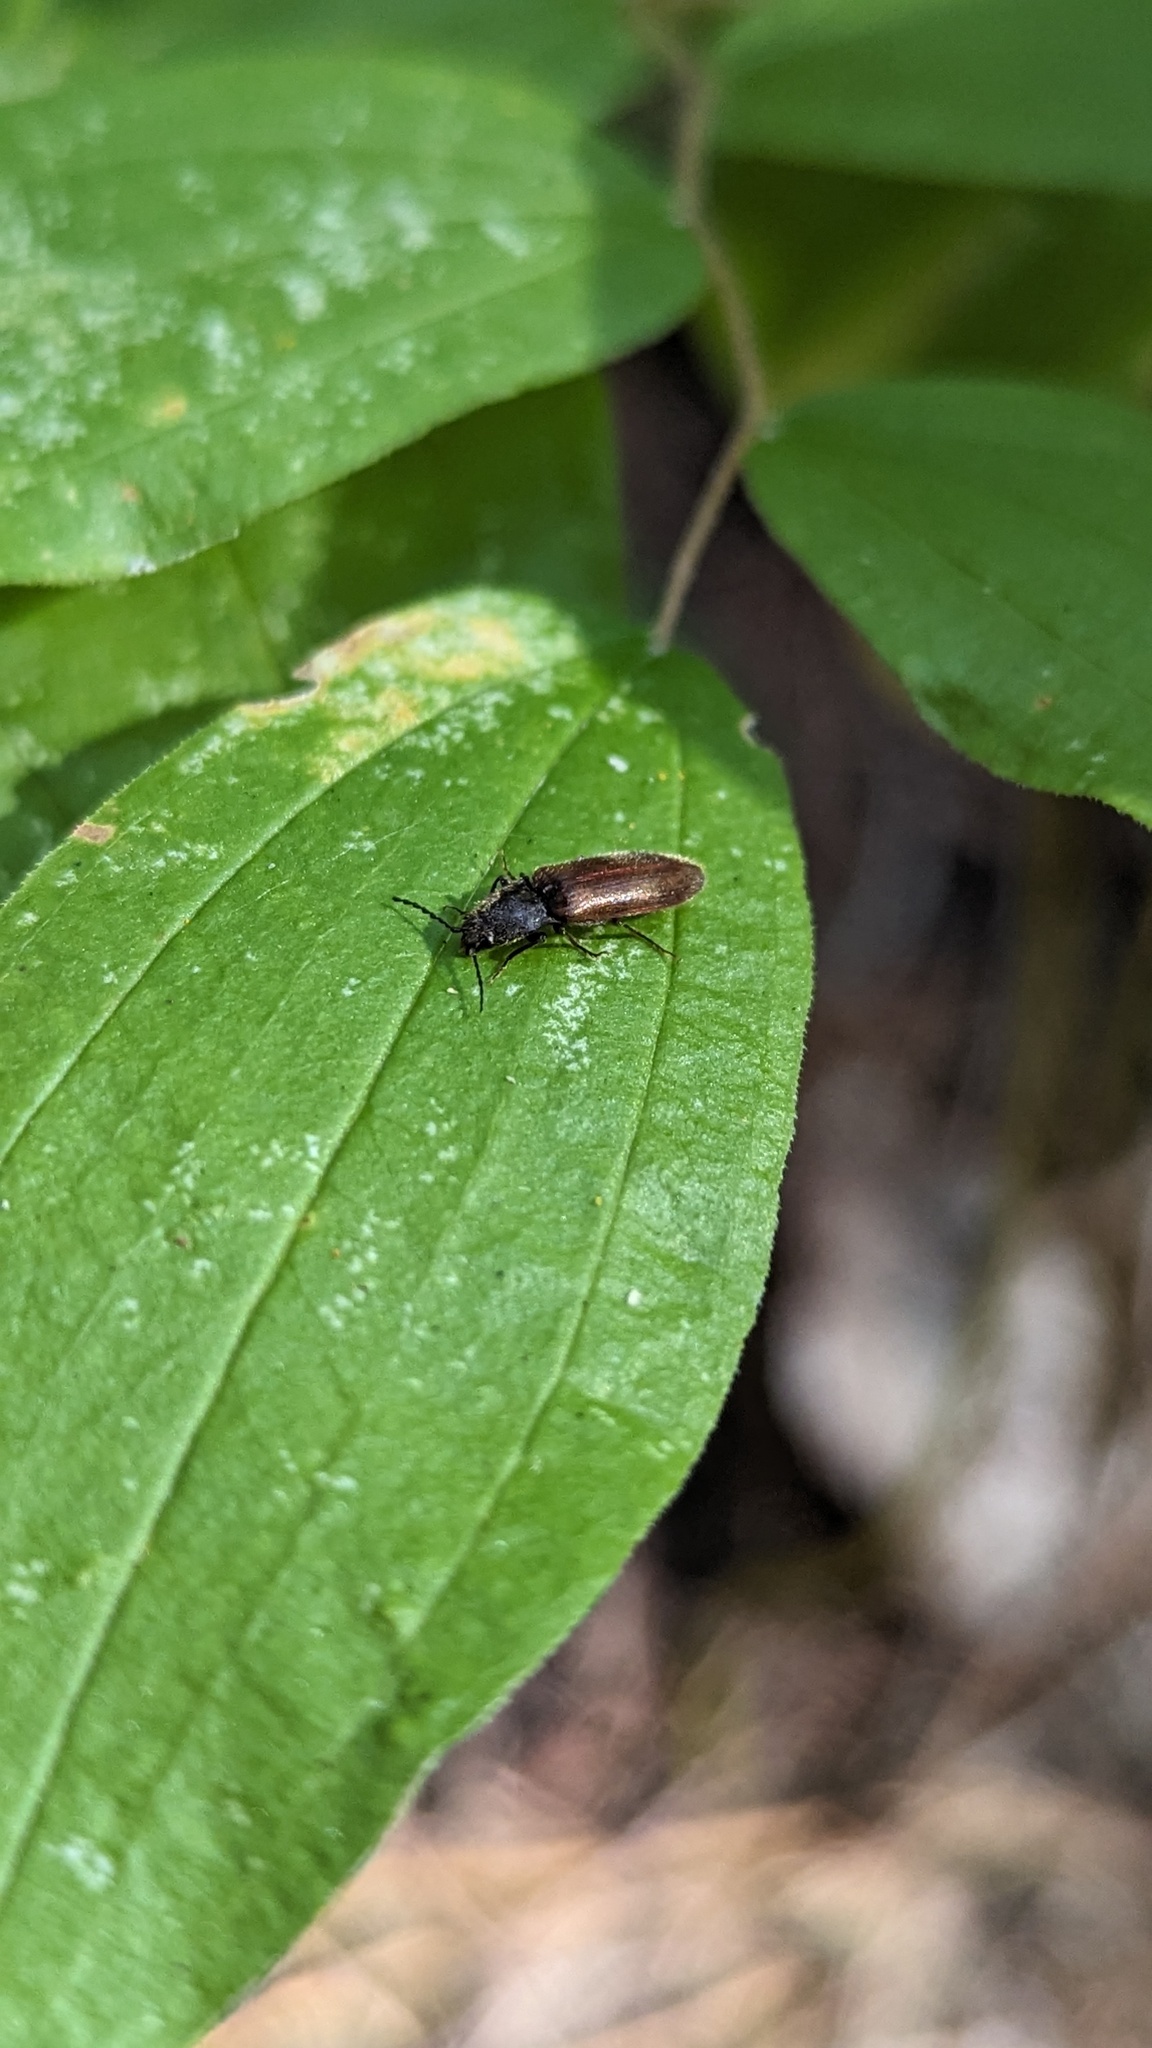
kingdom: Animalia
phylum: Arthropoda
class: Insecta
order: Coleoptera
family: Elateridae
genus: Hemicrepidius
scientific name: Hemicrepidius pallidipennis
